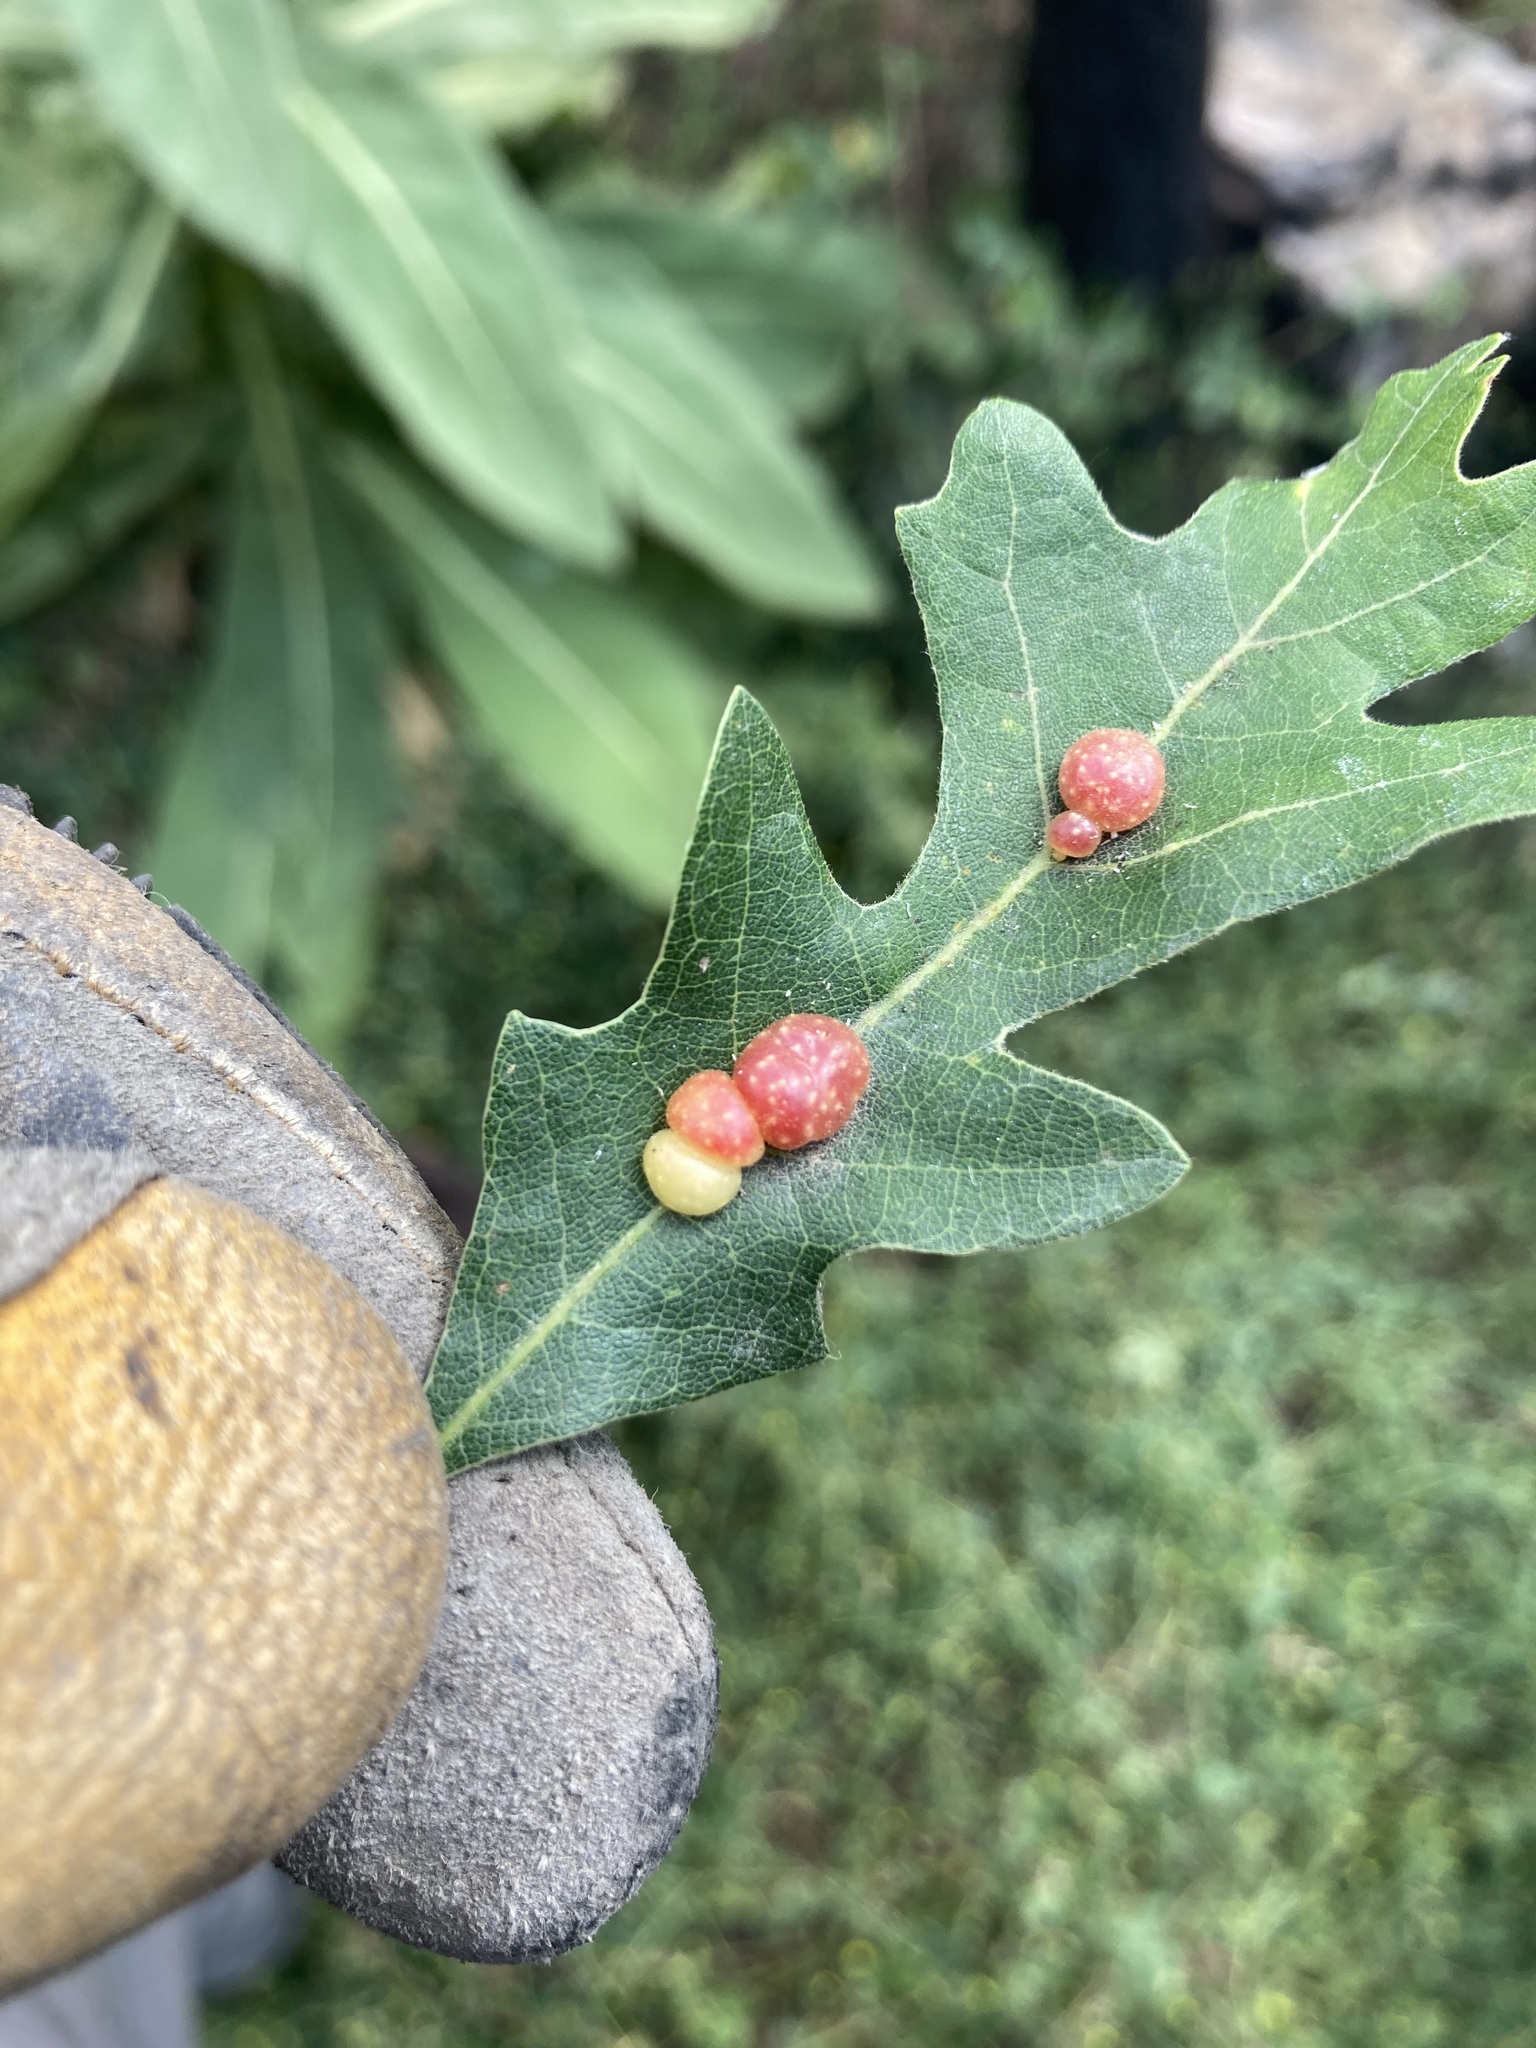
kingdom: Animalia
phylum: Arthropoda
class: Insecta
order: Hymenoptera
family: Cynipidae
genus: Trigonaspis
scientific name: Trigonaspis
